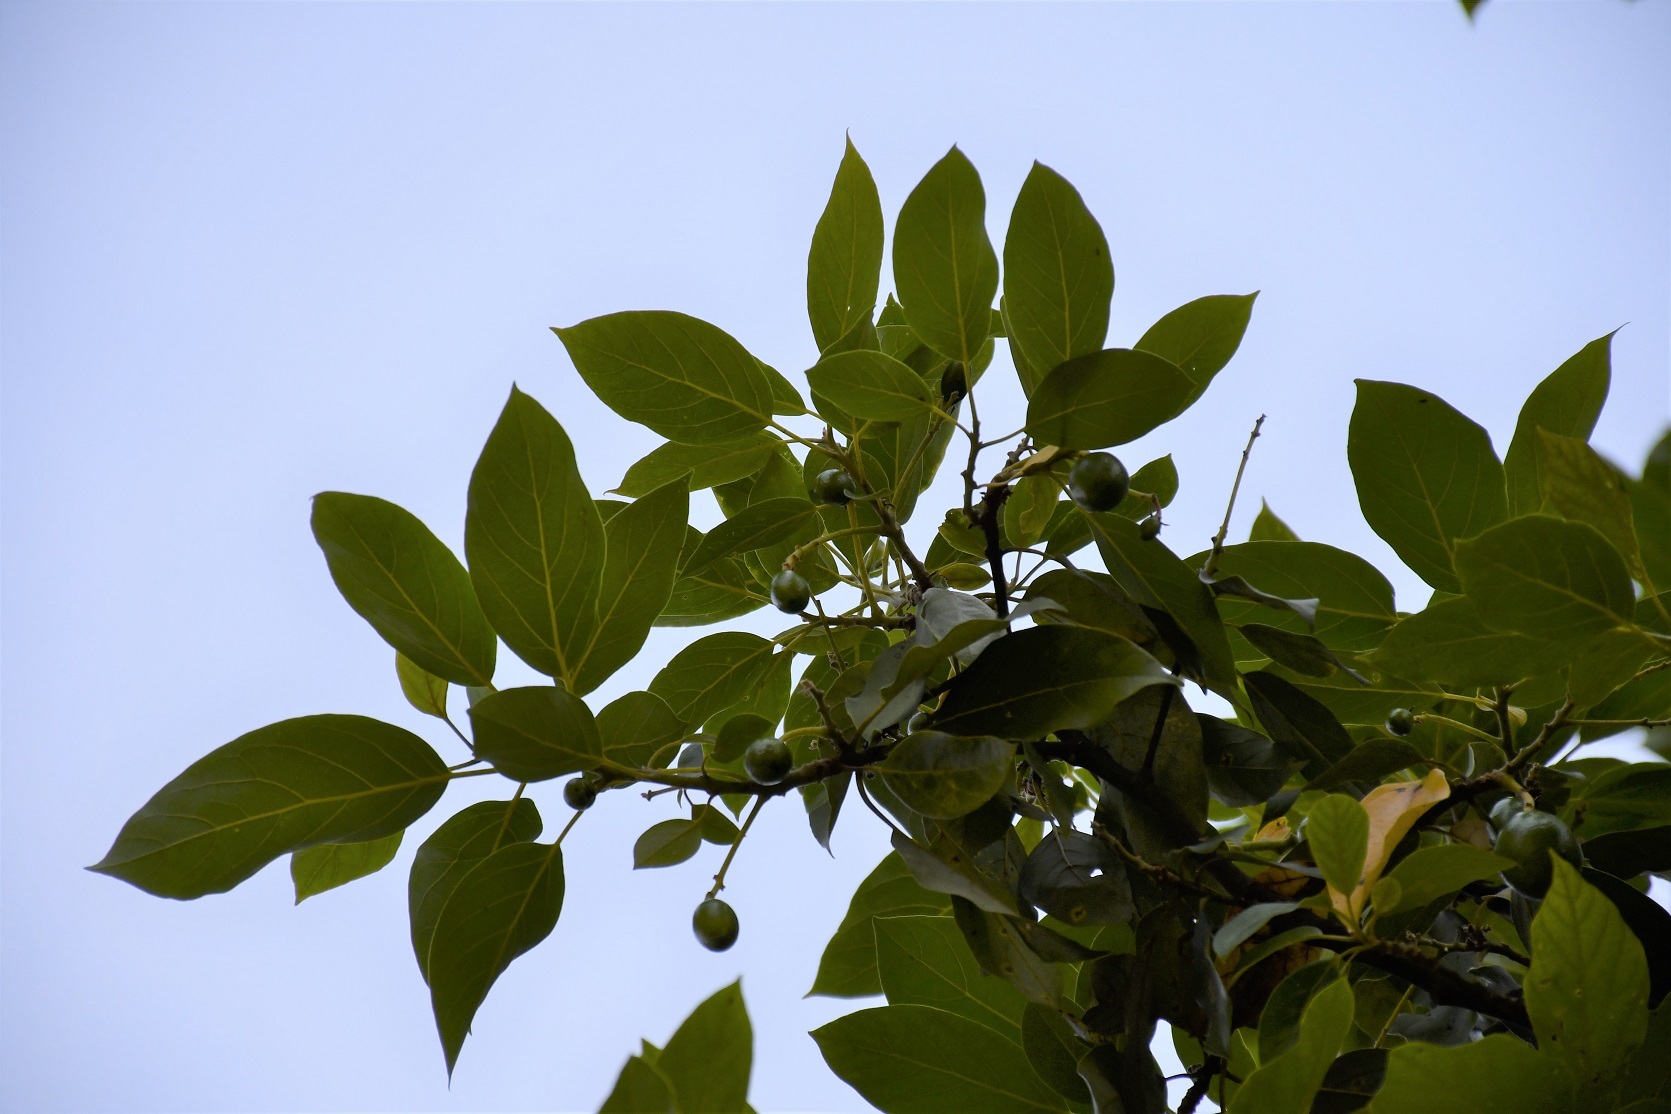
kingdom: Plantae
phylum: Tracheophyta
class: Magnoliopsida
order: Laurales
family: Lauraceae
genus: Persea
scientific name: Persea americana
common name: Avocado
